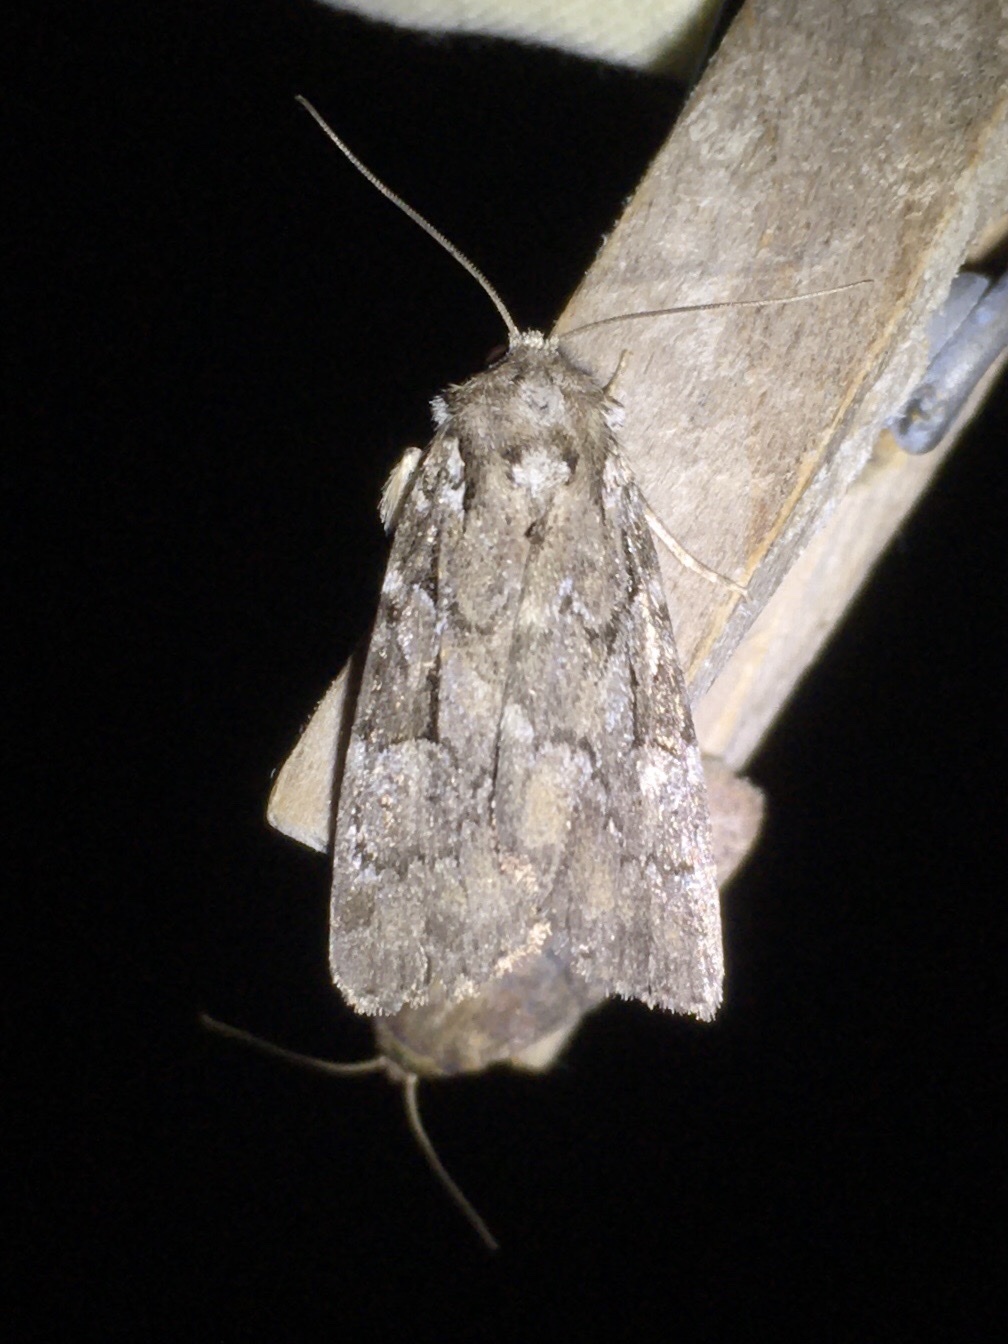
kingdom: Animalia
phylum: Arthropoda
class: Insecta
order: Lepidoptera
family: Noctuidae
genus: Aplectoides
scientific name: Aplectoides condita
